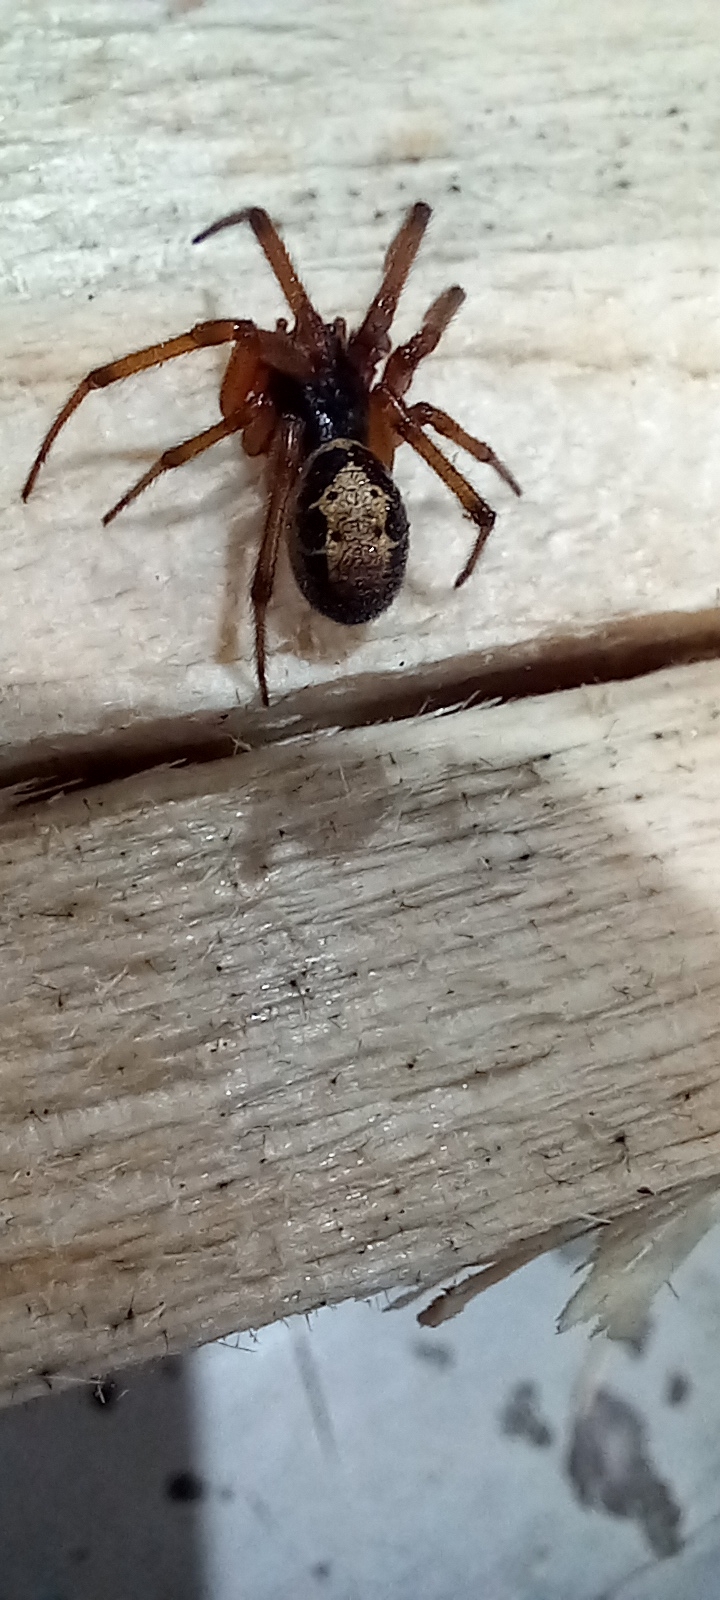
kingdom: Animalia
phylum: Arthropoda
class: Arachnida
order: Araneae
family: Theridiidae
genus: Steatoda
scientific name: Steatoda nobilis
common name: Cobweb weaver
